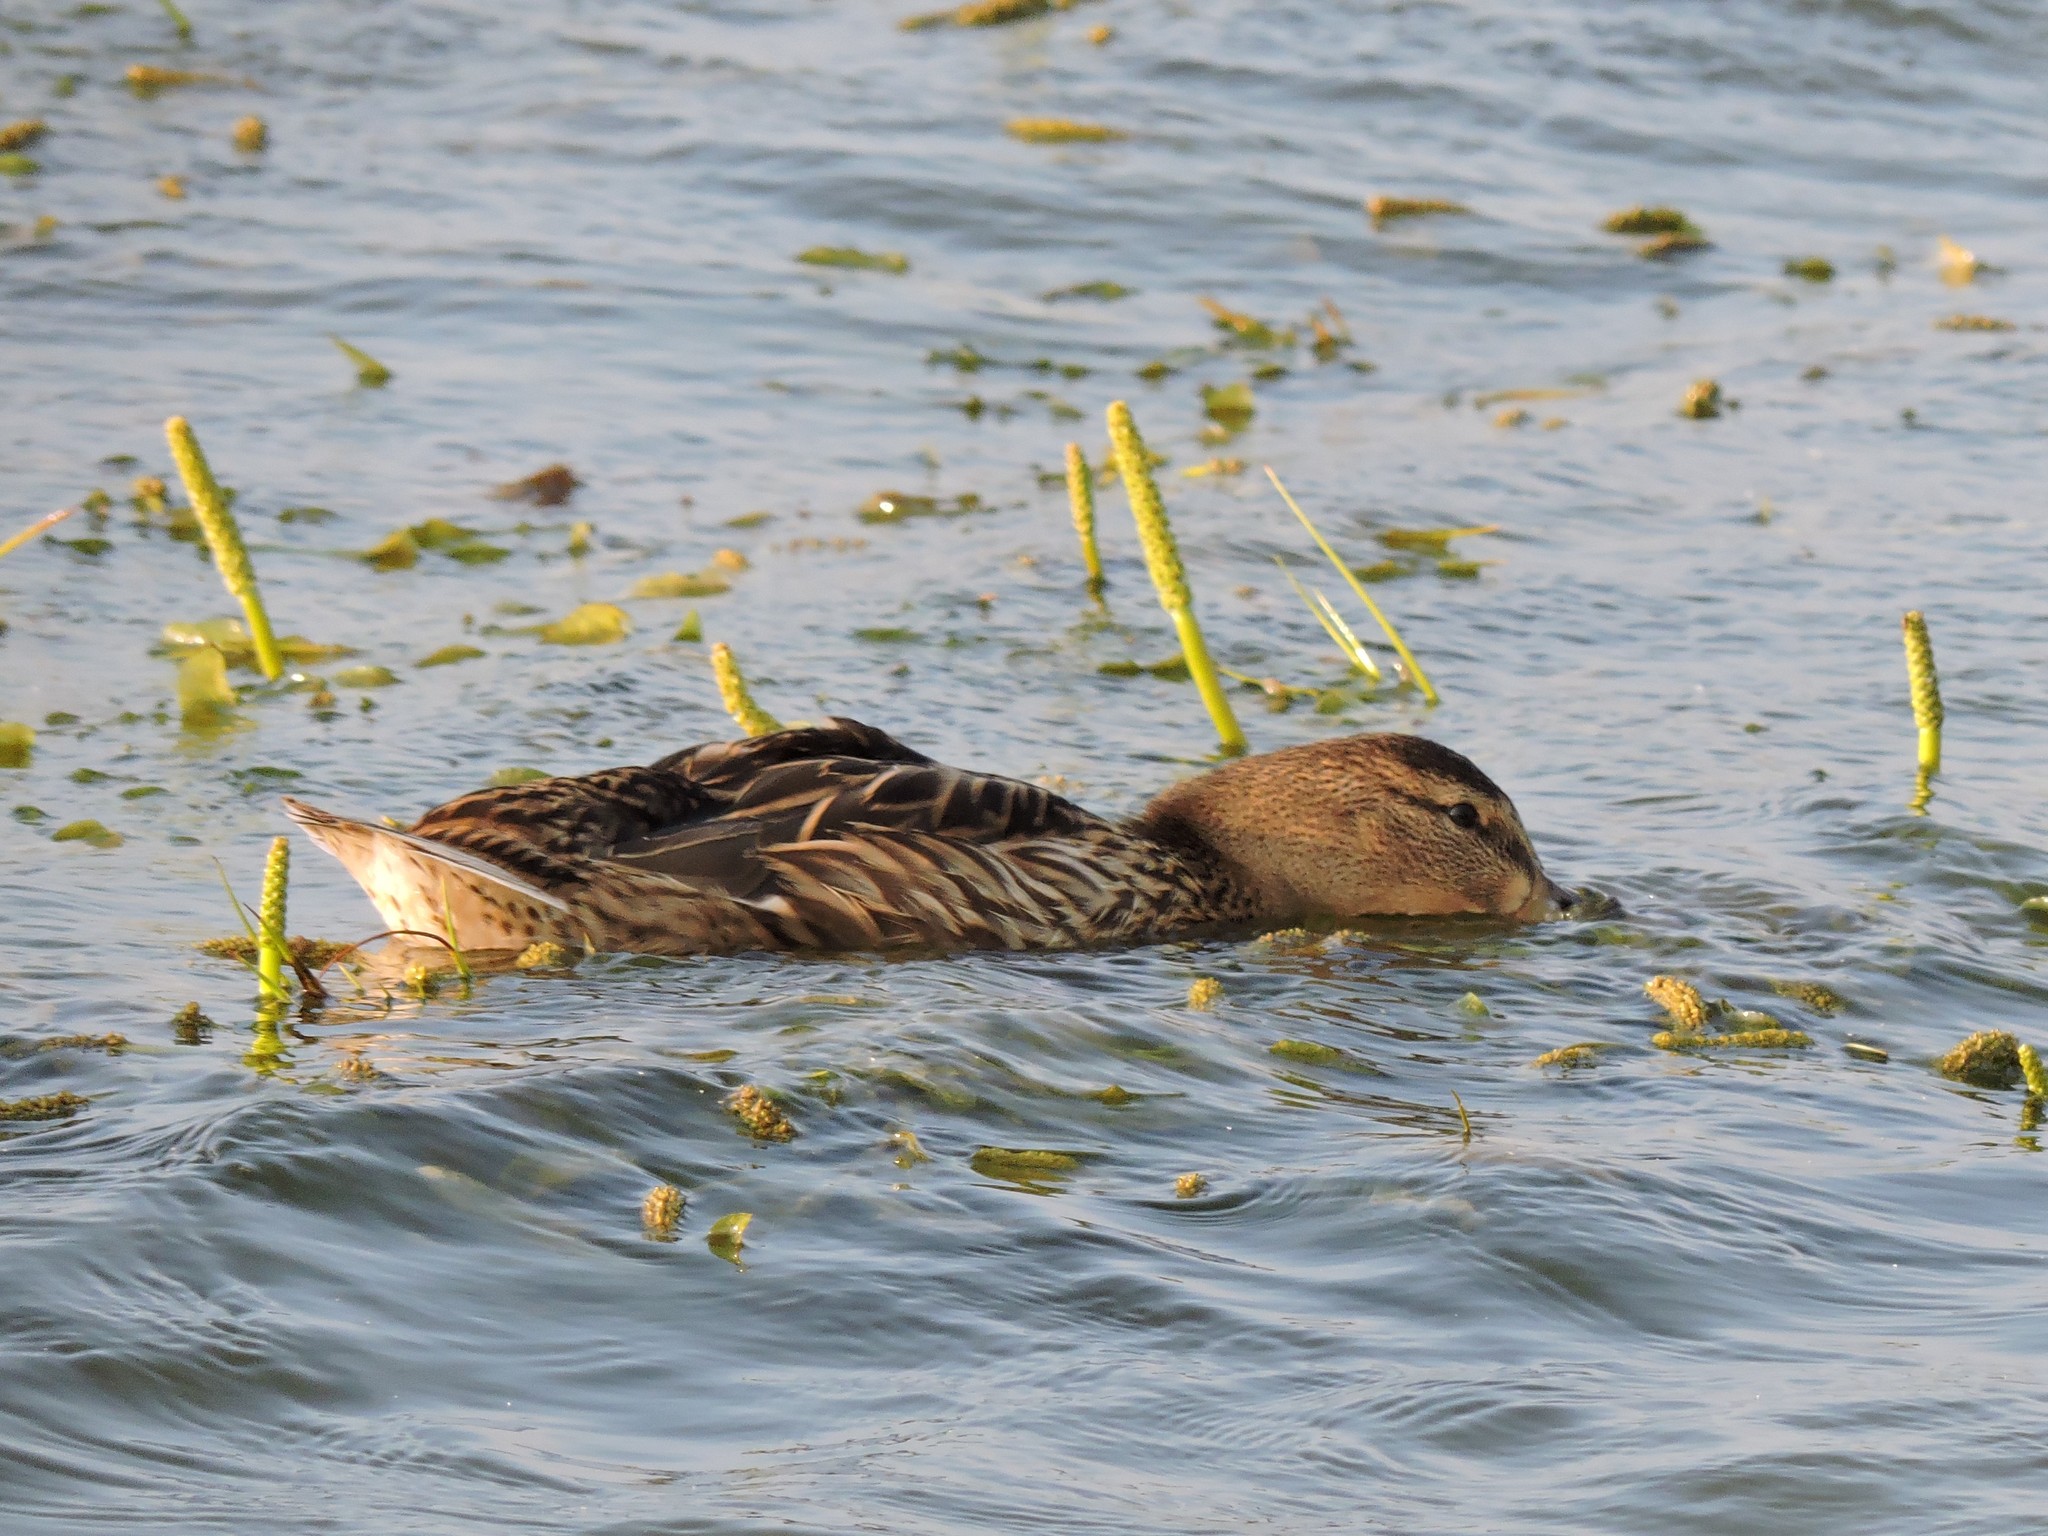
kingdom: Animalia
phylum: Chordata
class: Aves
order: Anseriformes
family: Anatidae
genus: Anas
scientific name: Anas platyrhynchos
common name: Mallard
